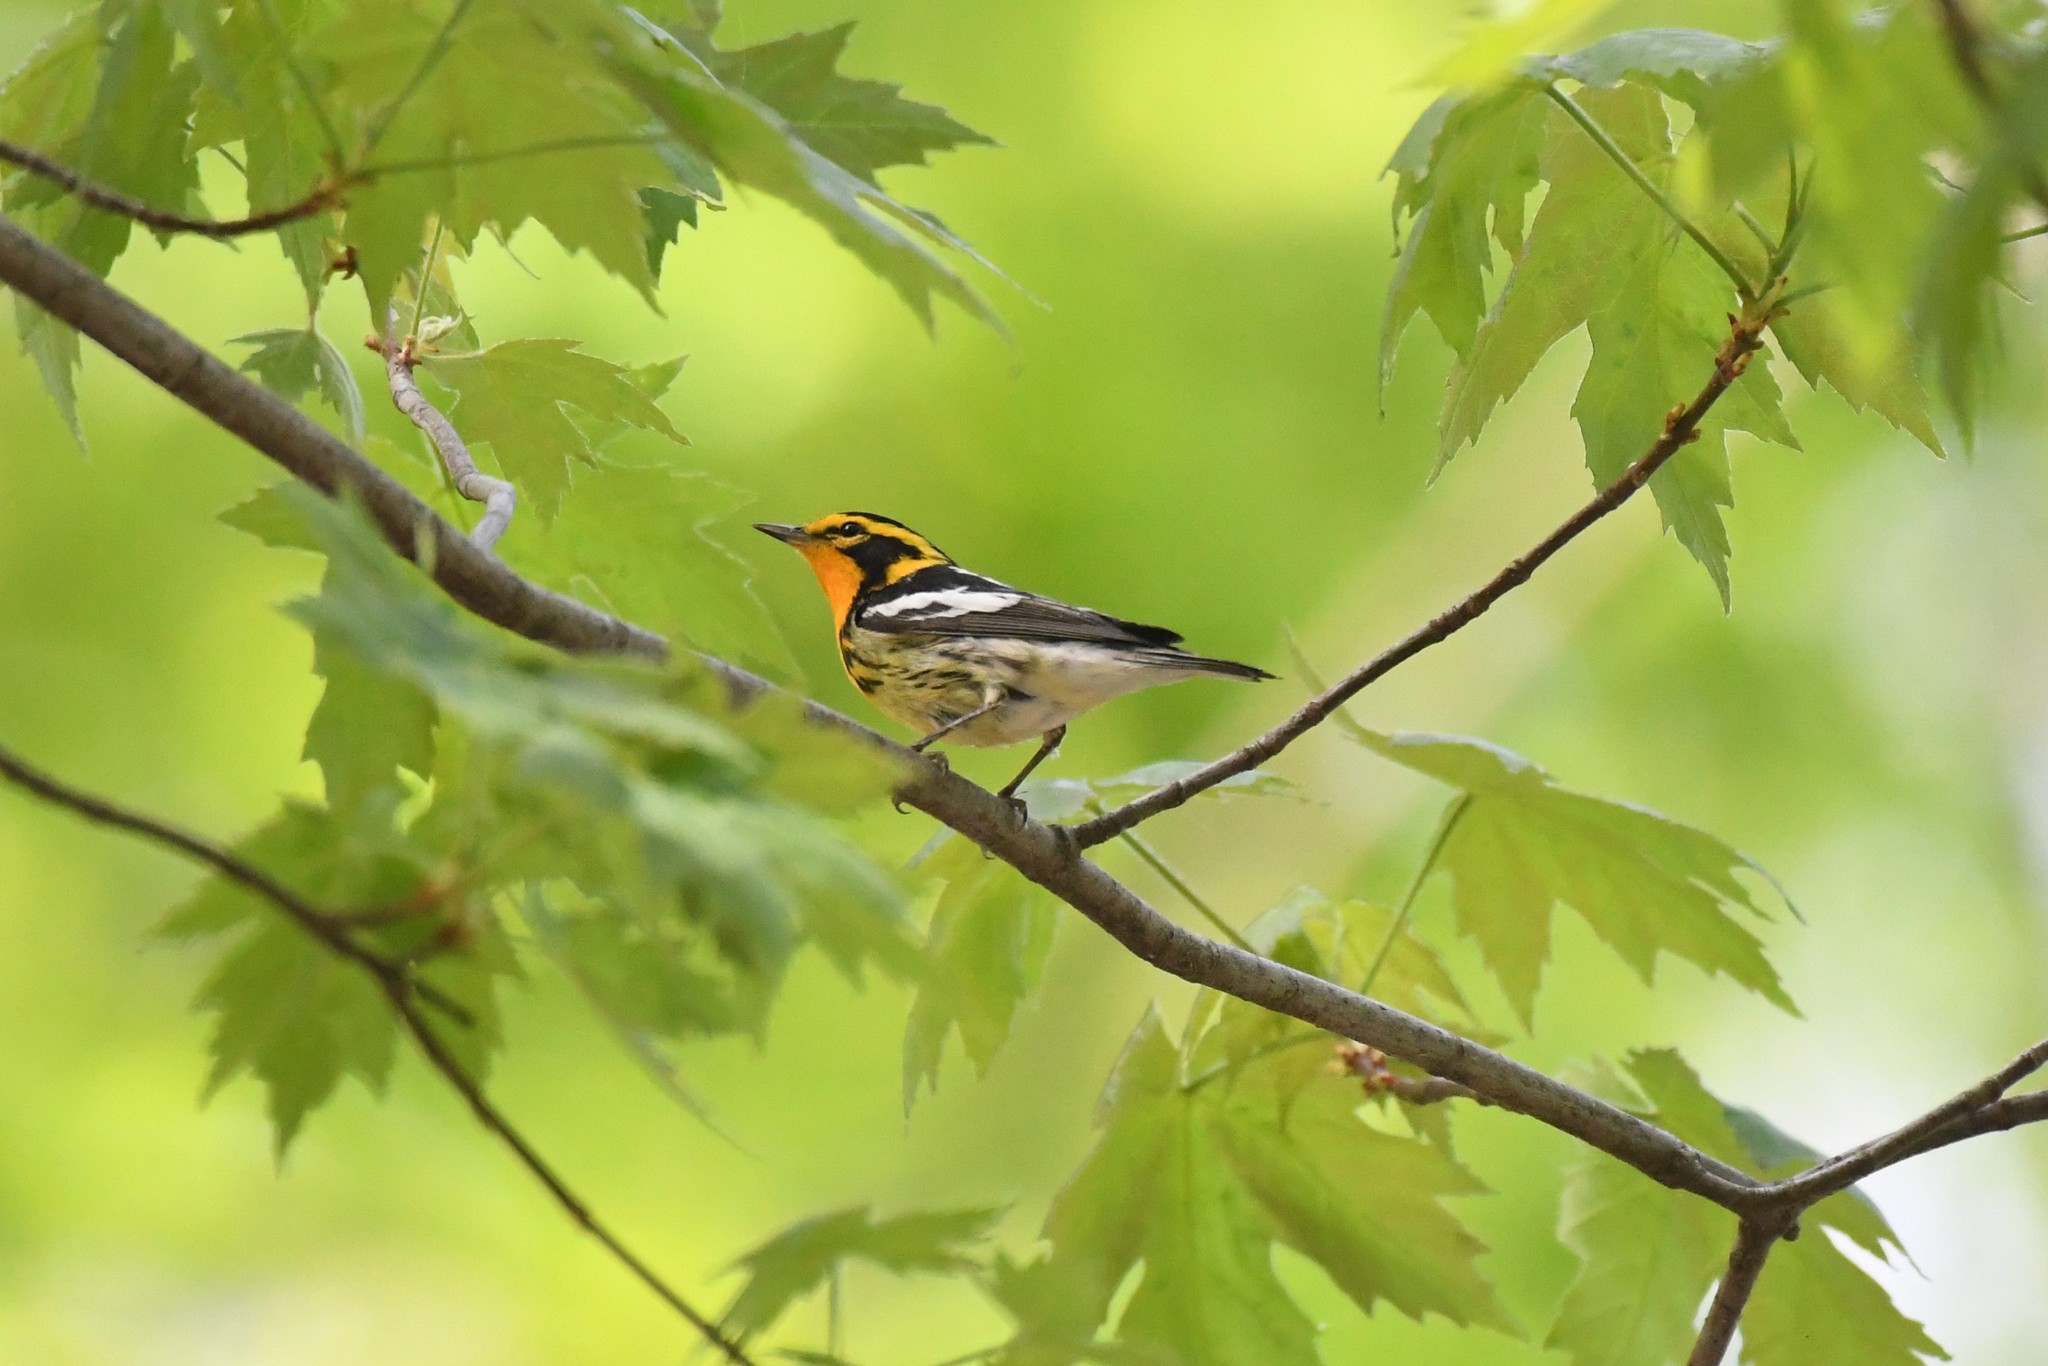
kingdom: Animalia
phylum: Chordata
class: Aves
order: Passeriformes
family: Parulidae
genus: Setophaga
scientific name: Setophaga fusca
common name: Blackburnian warbler
